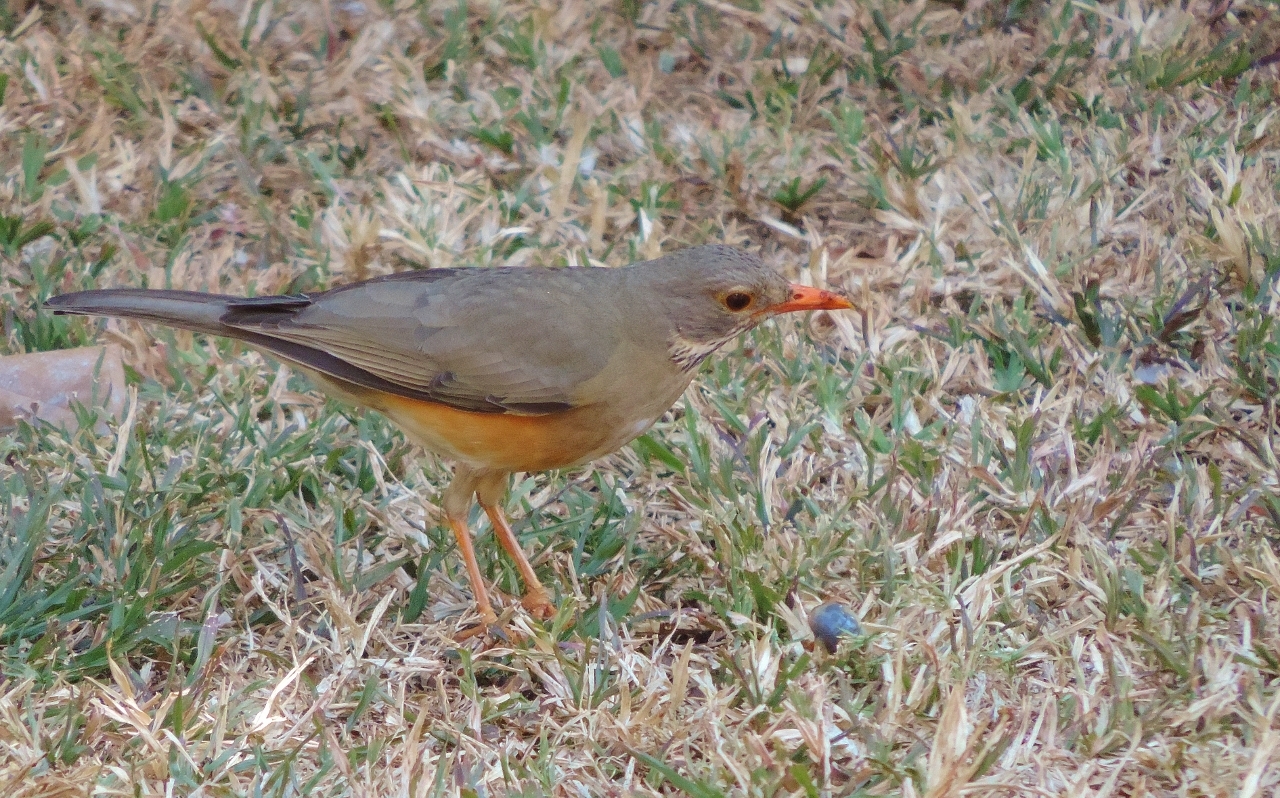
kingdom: Animalia
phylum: Chordata
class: Aves
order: Passeriformes
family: Turdidae
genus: Turdus
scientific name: Turdus libonyana
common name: Kurrichane thrush
